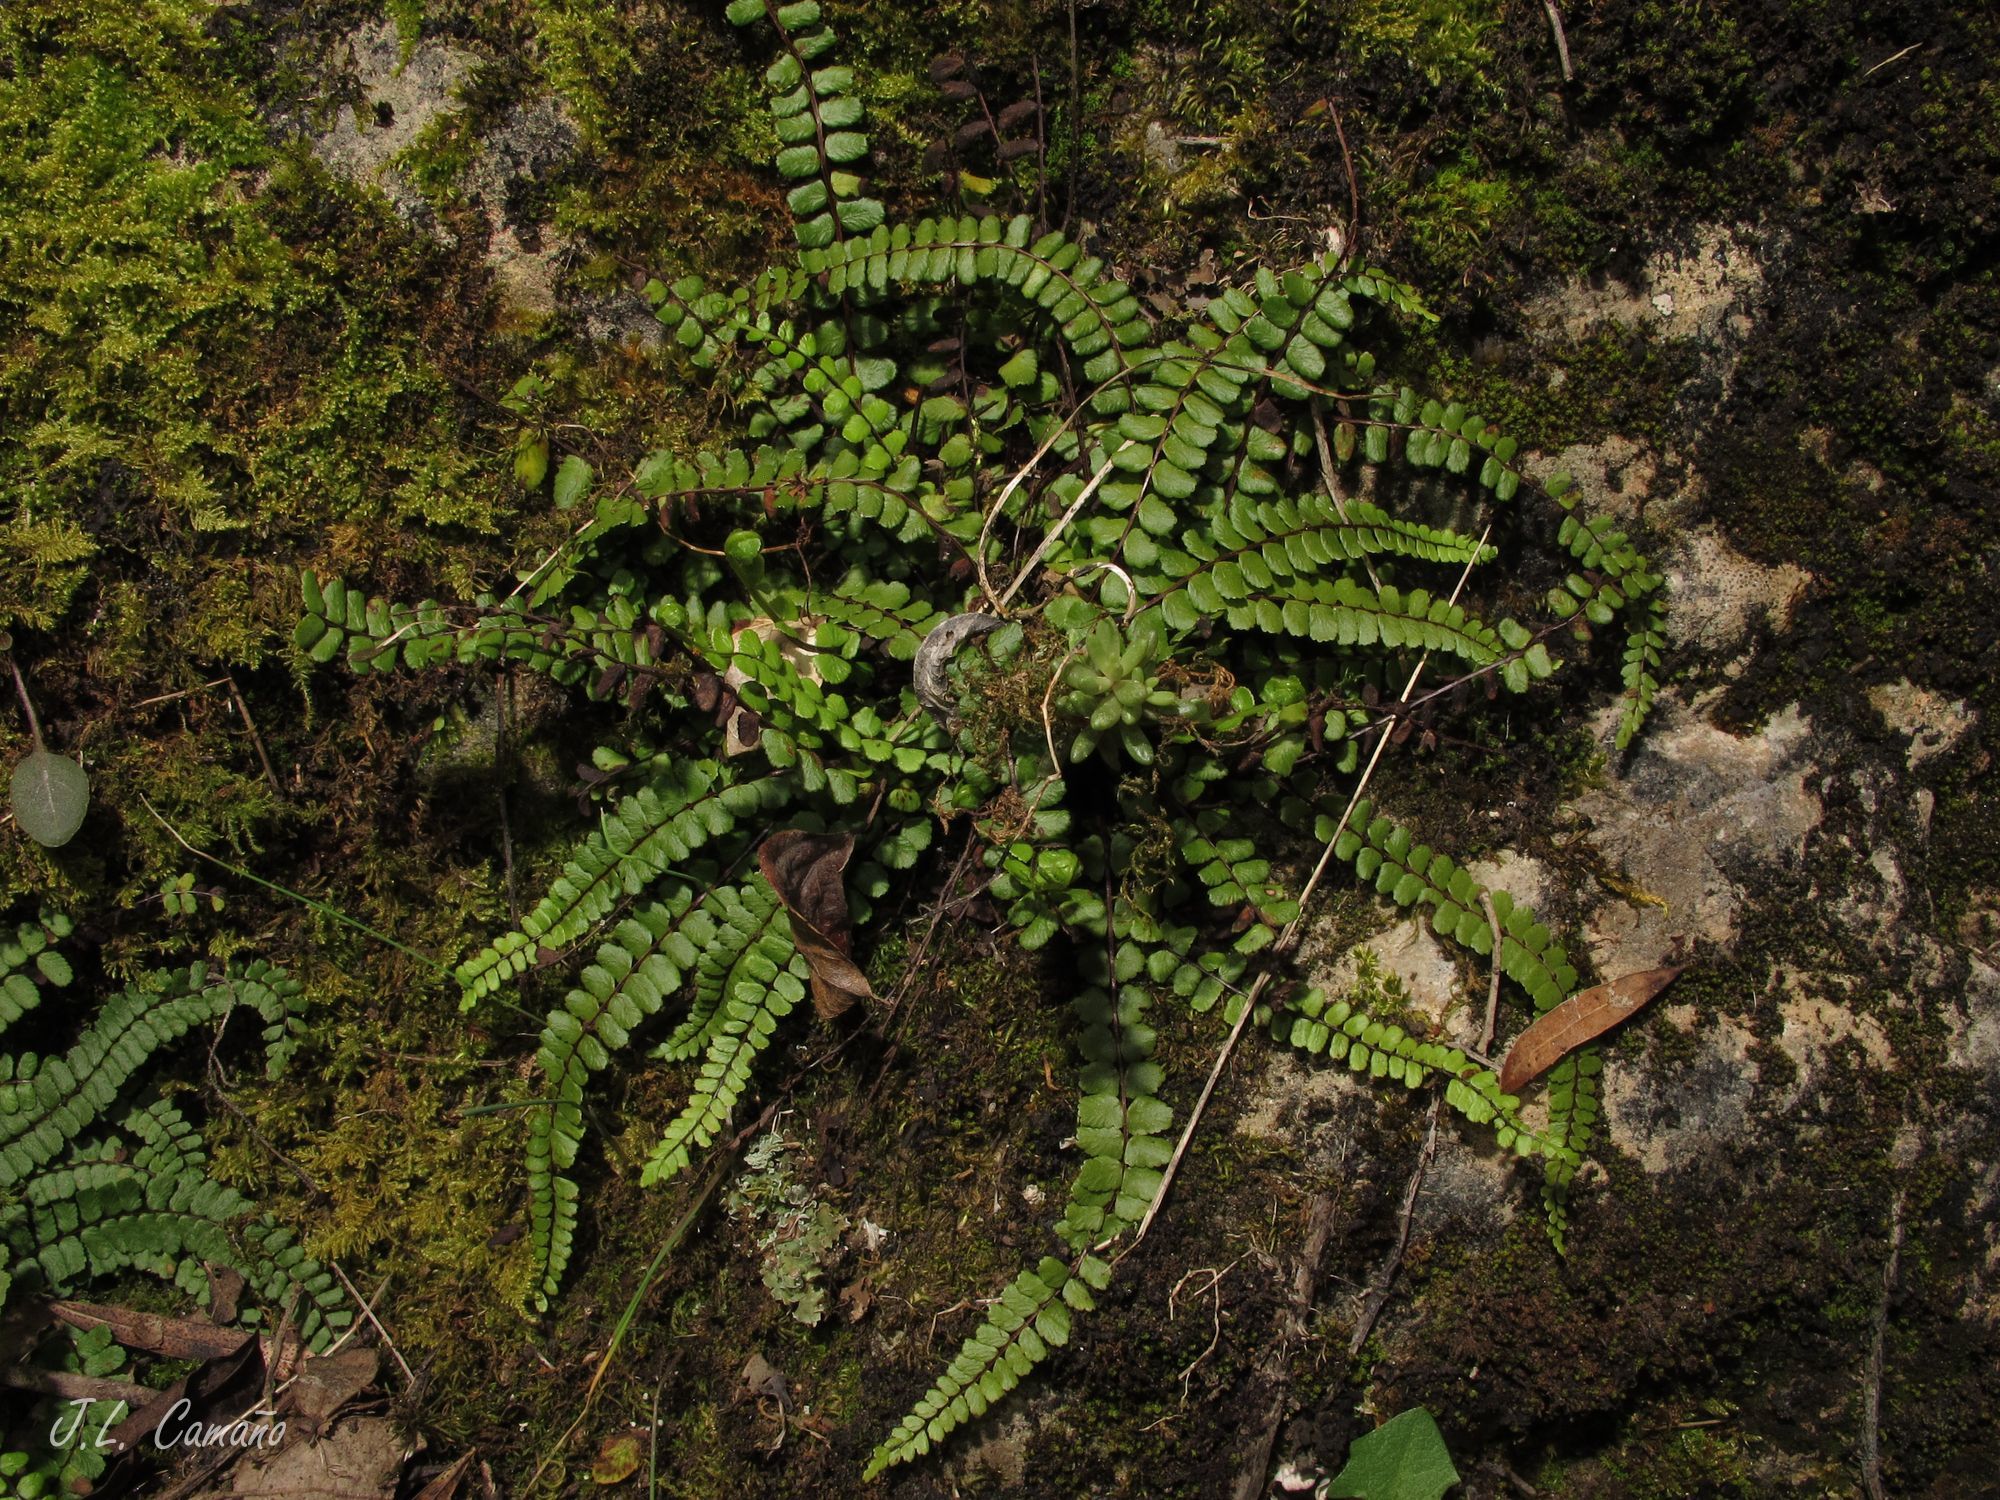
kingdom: Plantae
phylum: Tracheophyta
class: Polypodiopsida
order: Polypodiales
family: Aspleniaceae
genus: Asplenium
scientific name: Asplenium trichomanes
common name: Maidenhair spleenwort
